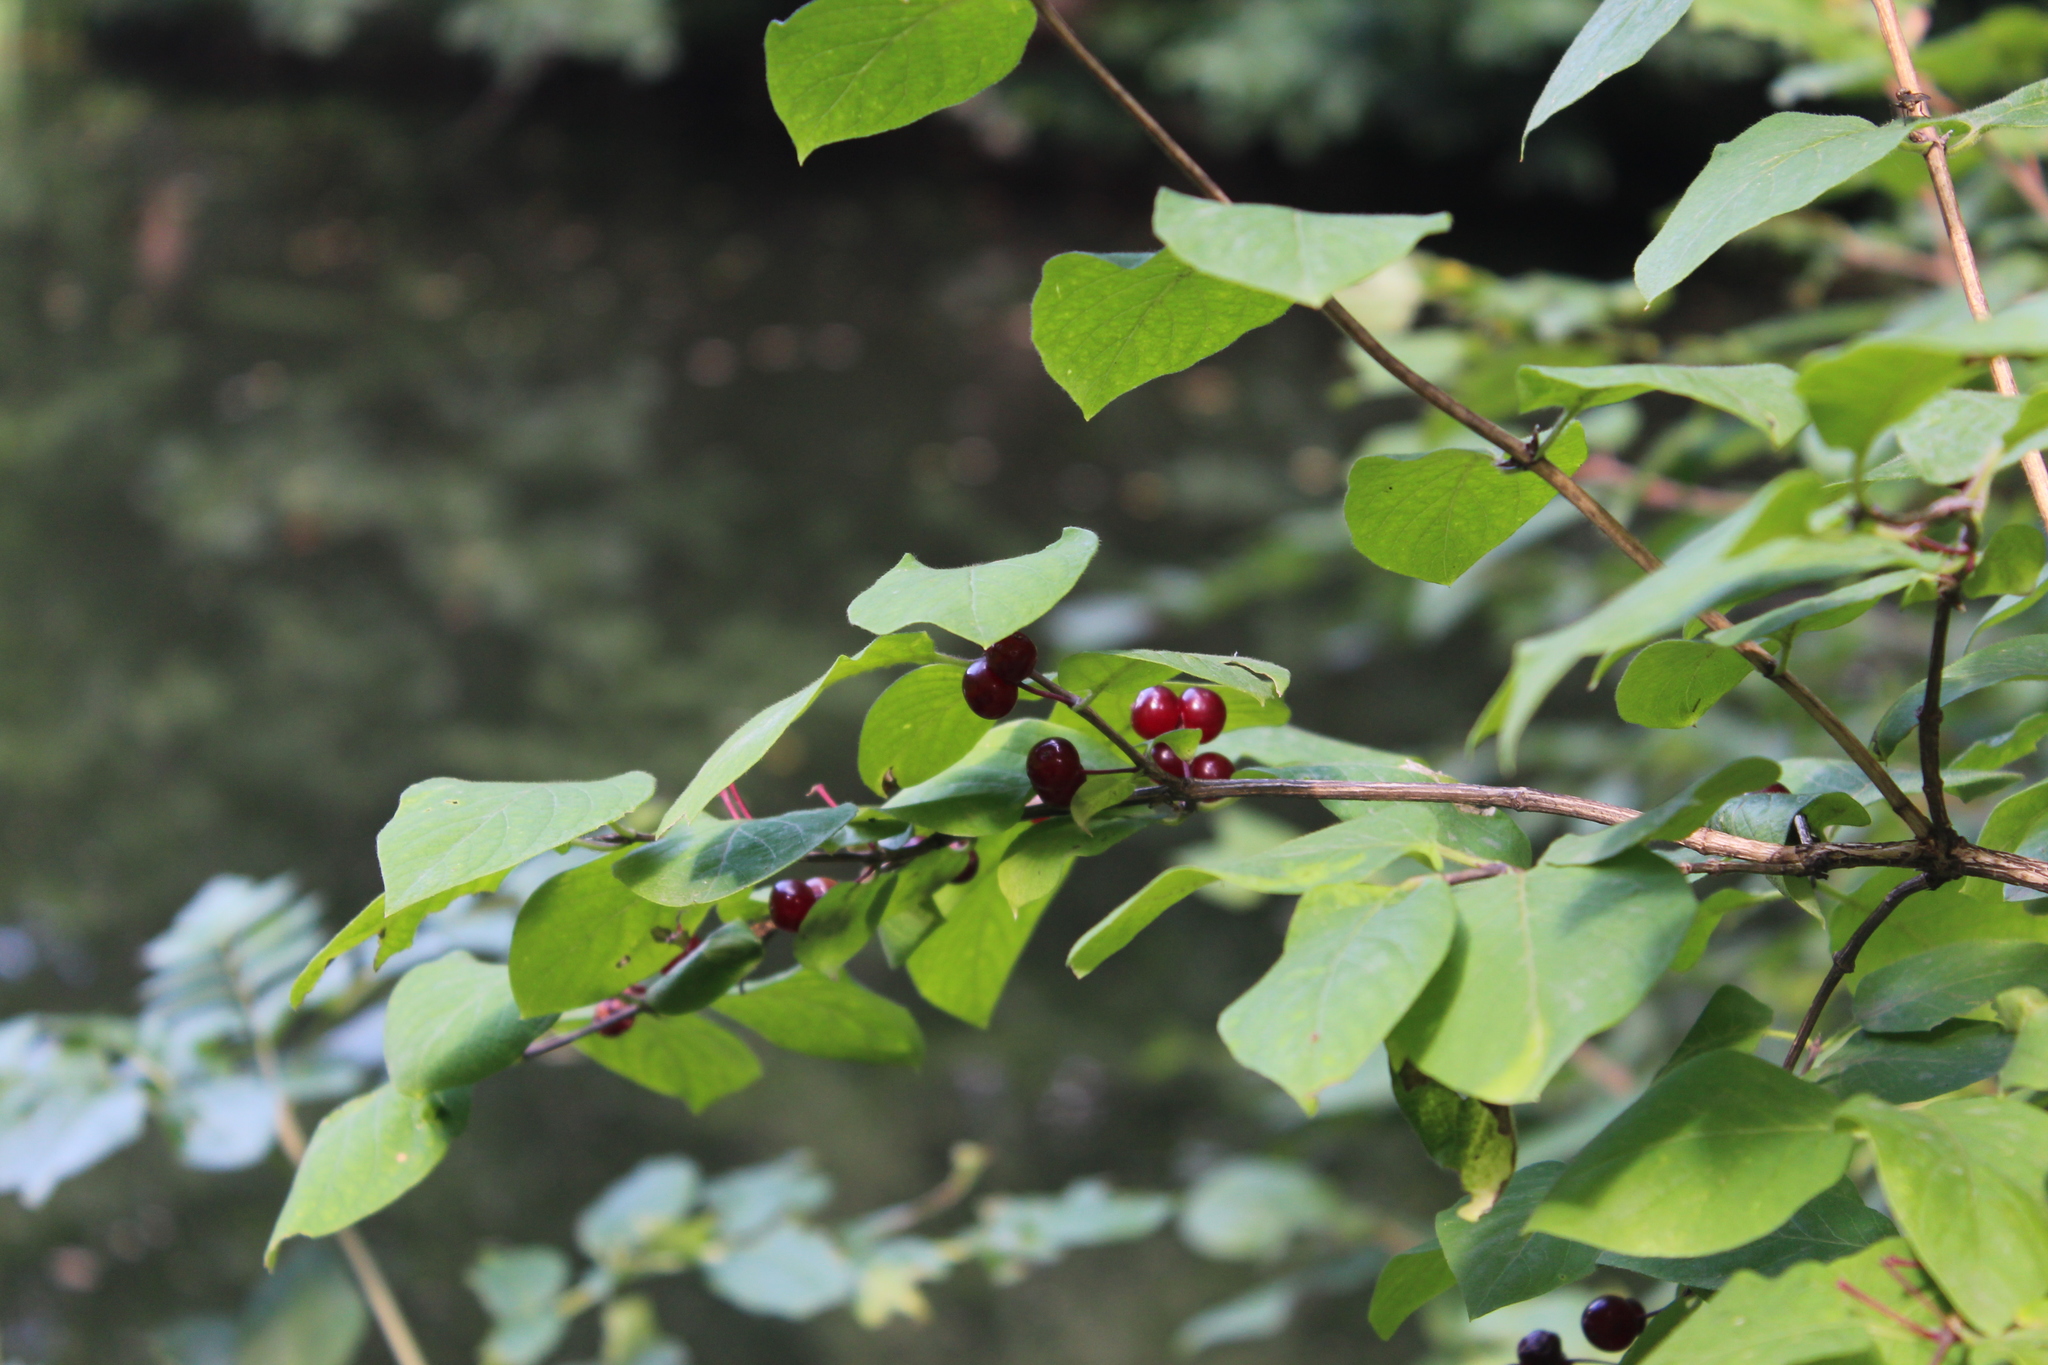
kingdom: Plantae
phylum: Tracheophyta
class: Magnoliopsida
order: Dipsacales
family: Caprifoliaceae
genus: Lonicera
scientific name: Lonicera steveniana
